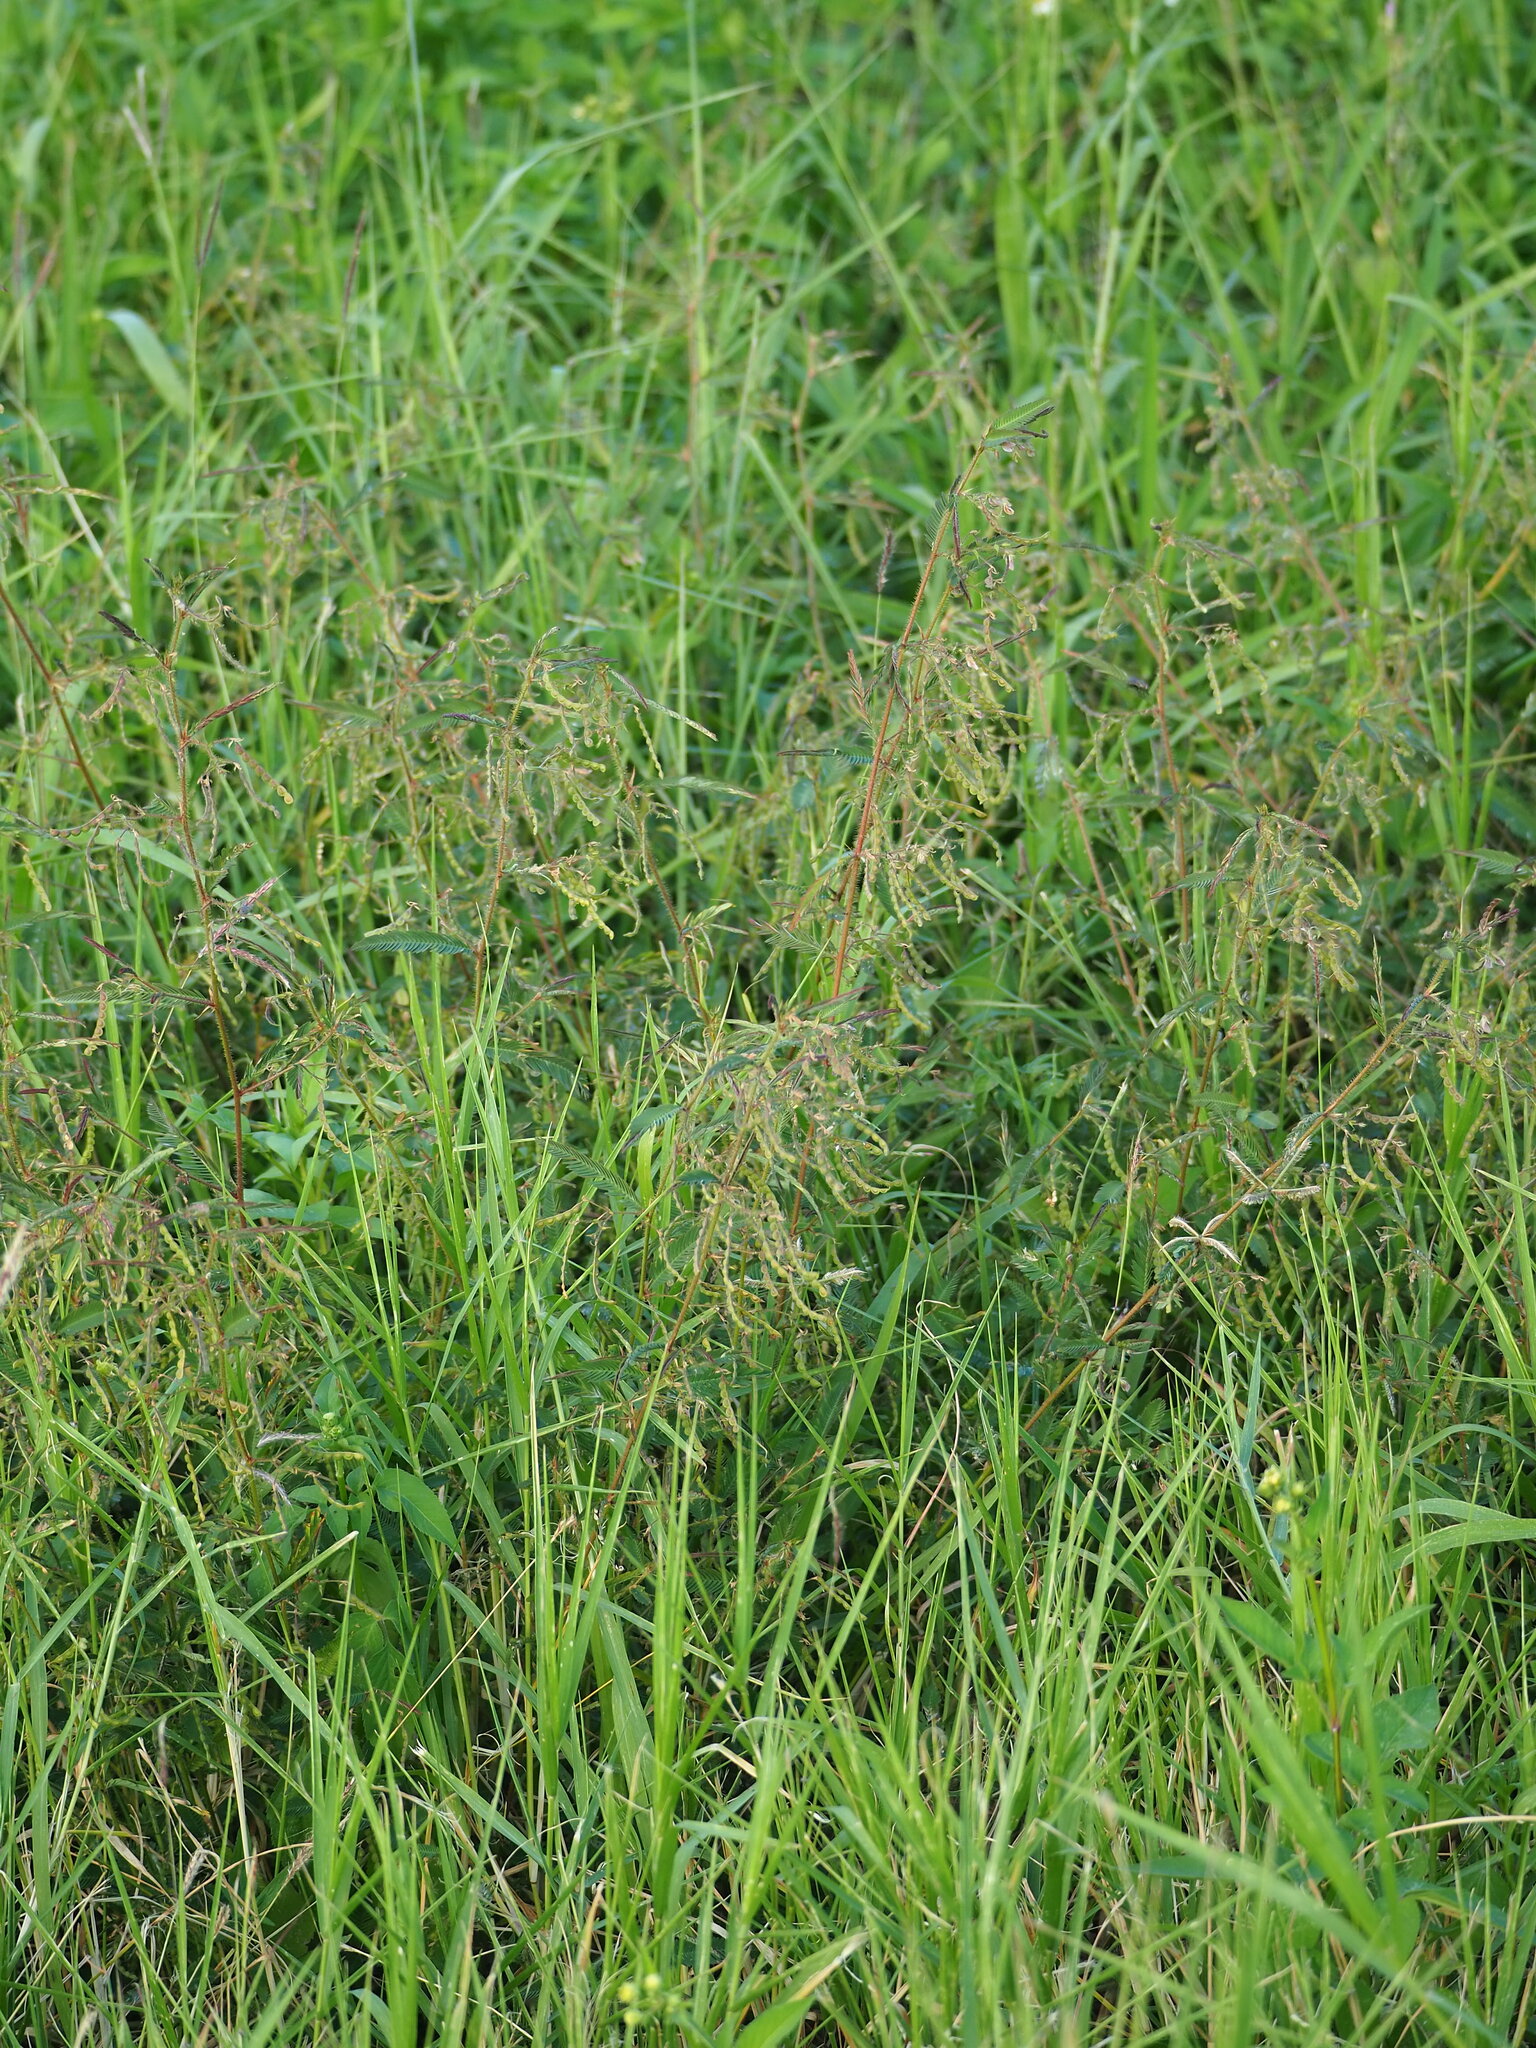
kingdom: Plantae
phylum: Tracheophyta
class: Magnoliopsida
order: Fabales
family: Fabaceae
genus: Aeschynomene
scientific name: Aeschynomene americana
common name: Joint-vetch
